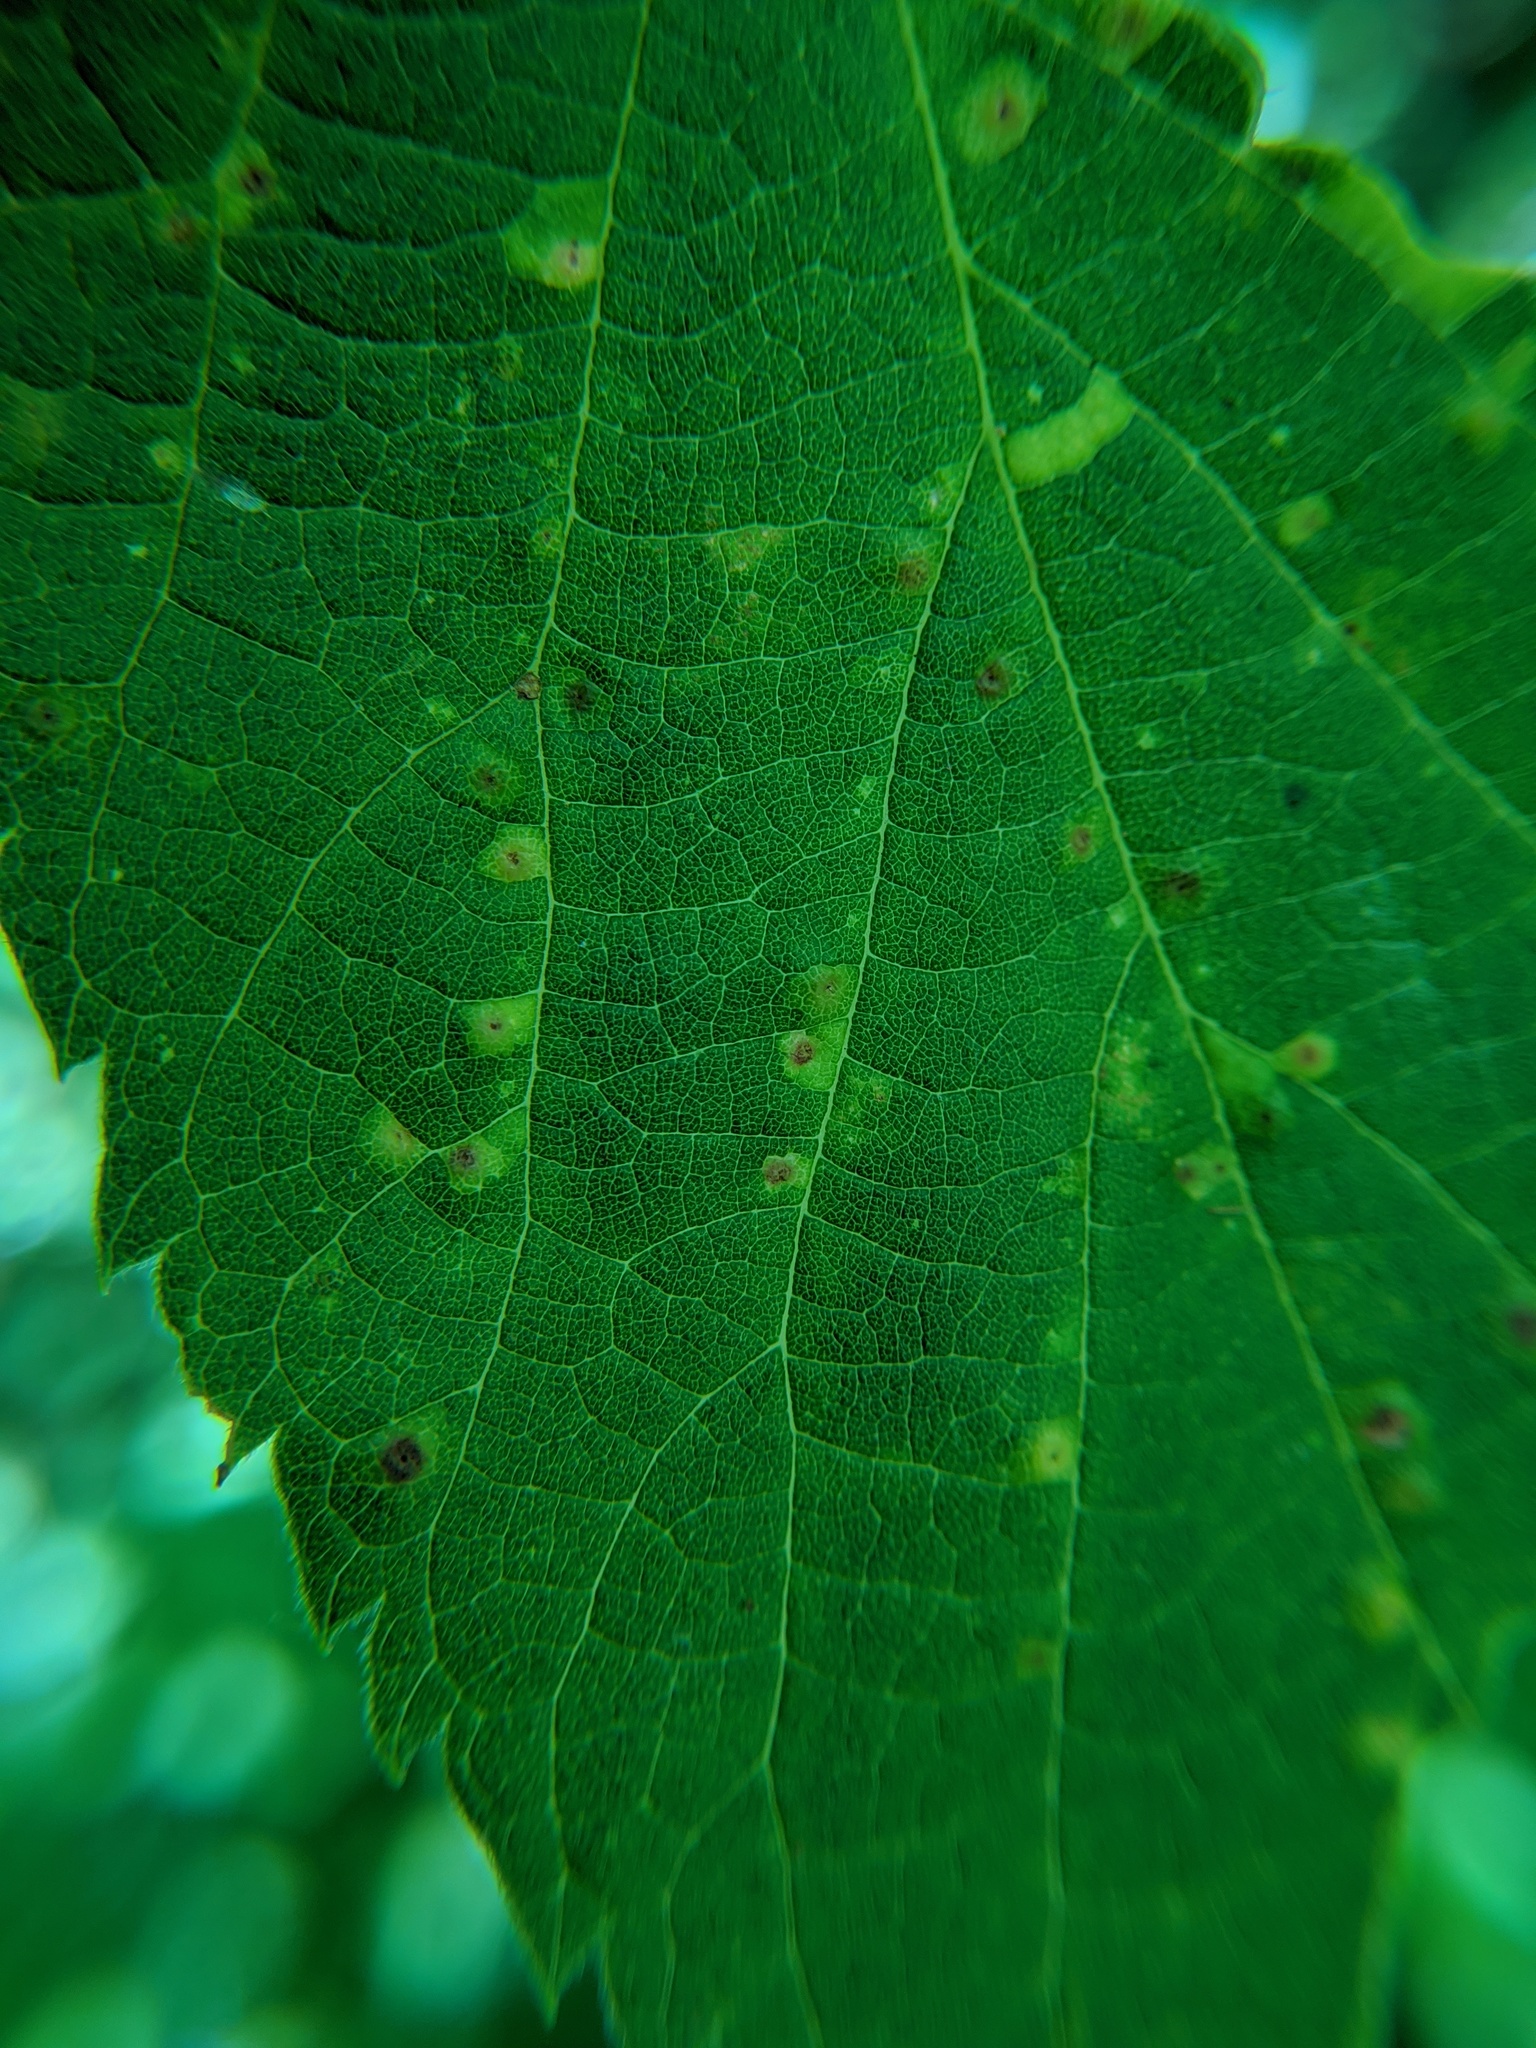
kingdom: Animalia
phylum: Arthropoda
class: Insecta
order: Hemiptera
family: Aphalaridae
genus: Pachypsylla
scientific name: Pachypsylla celtidisvesicula
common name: Hackberry blister gall psyllid
